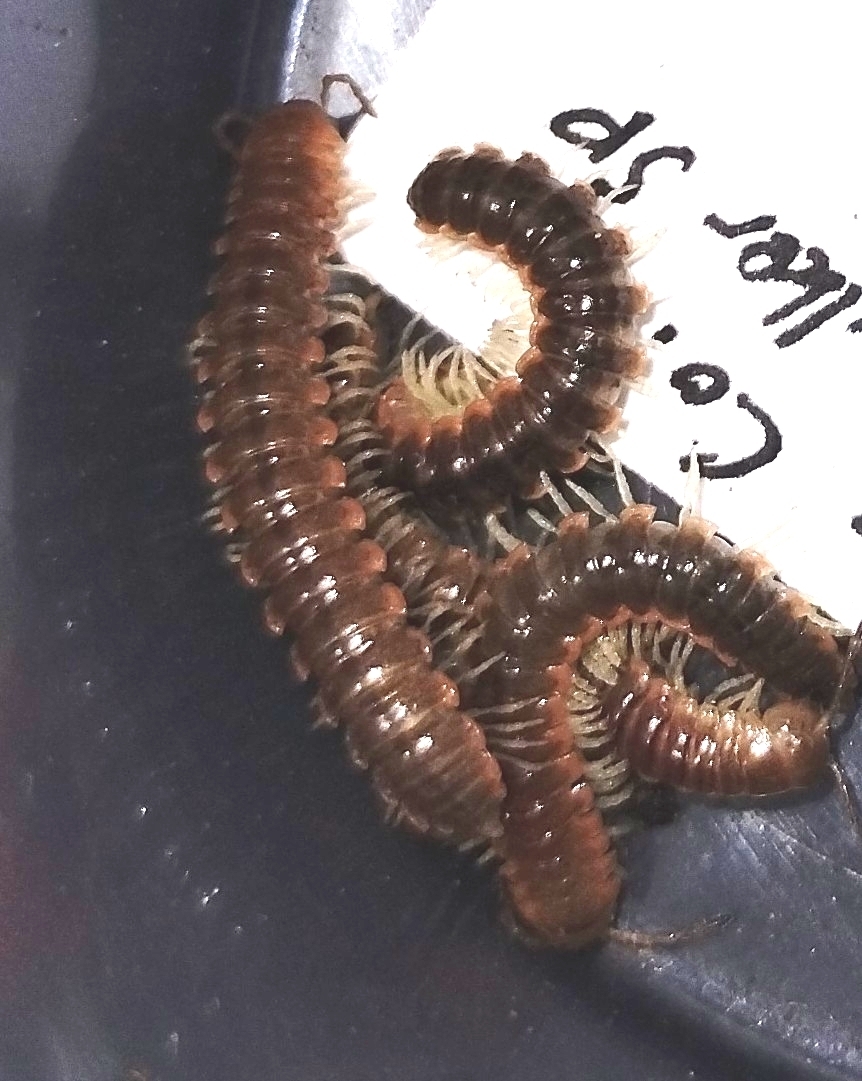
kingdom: Animalia
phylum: Arthropoda
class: Diplopoda
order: Polydesmida
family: Xystodesmidae
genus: Dicellarius
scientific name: Dicellarius okefenokensis
